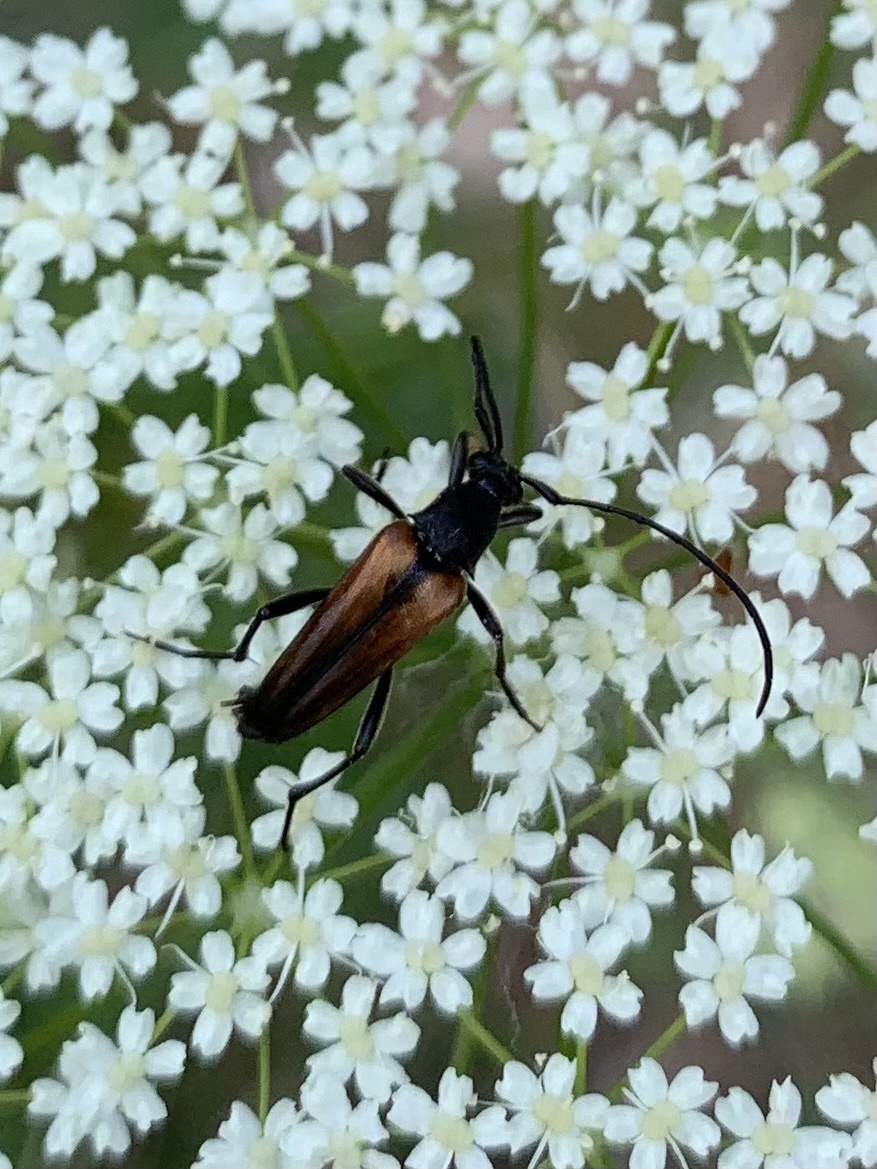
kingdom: Animalia
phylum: Arthropoda
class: Insecta
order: Coleoptera
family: Cerambycidae
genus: Stenurella
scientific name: Stenurella melanura
